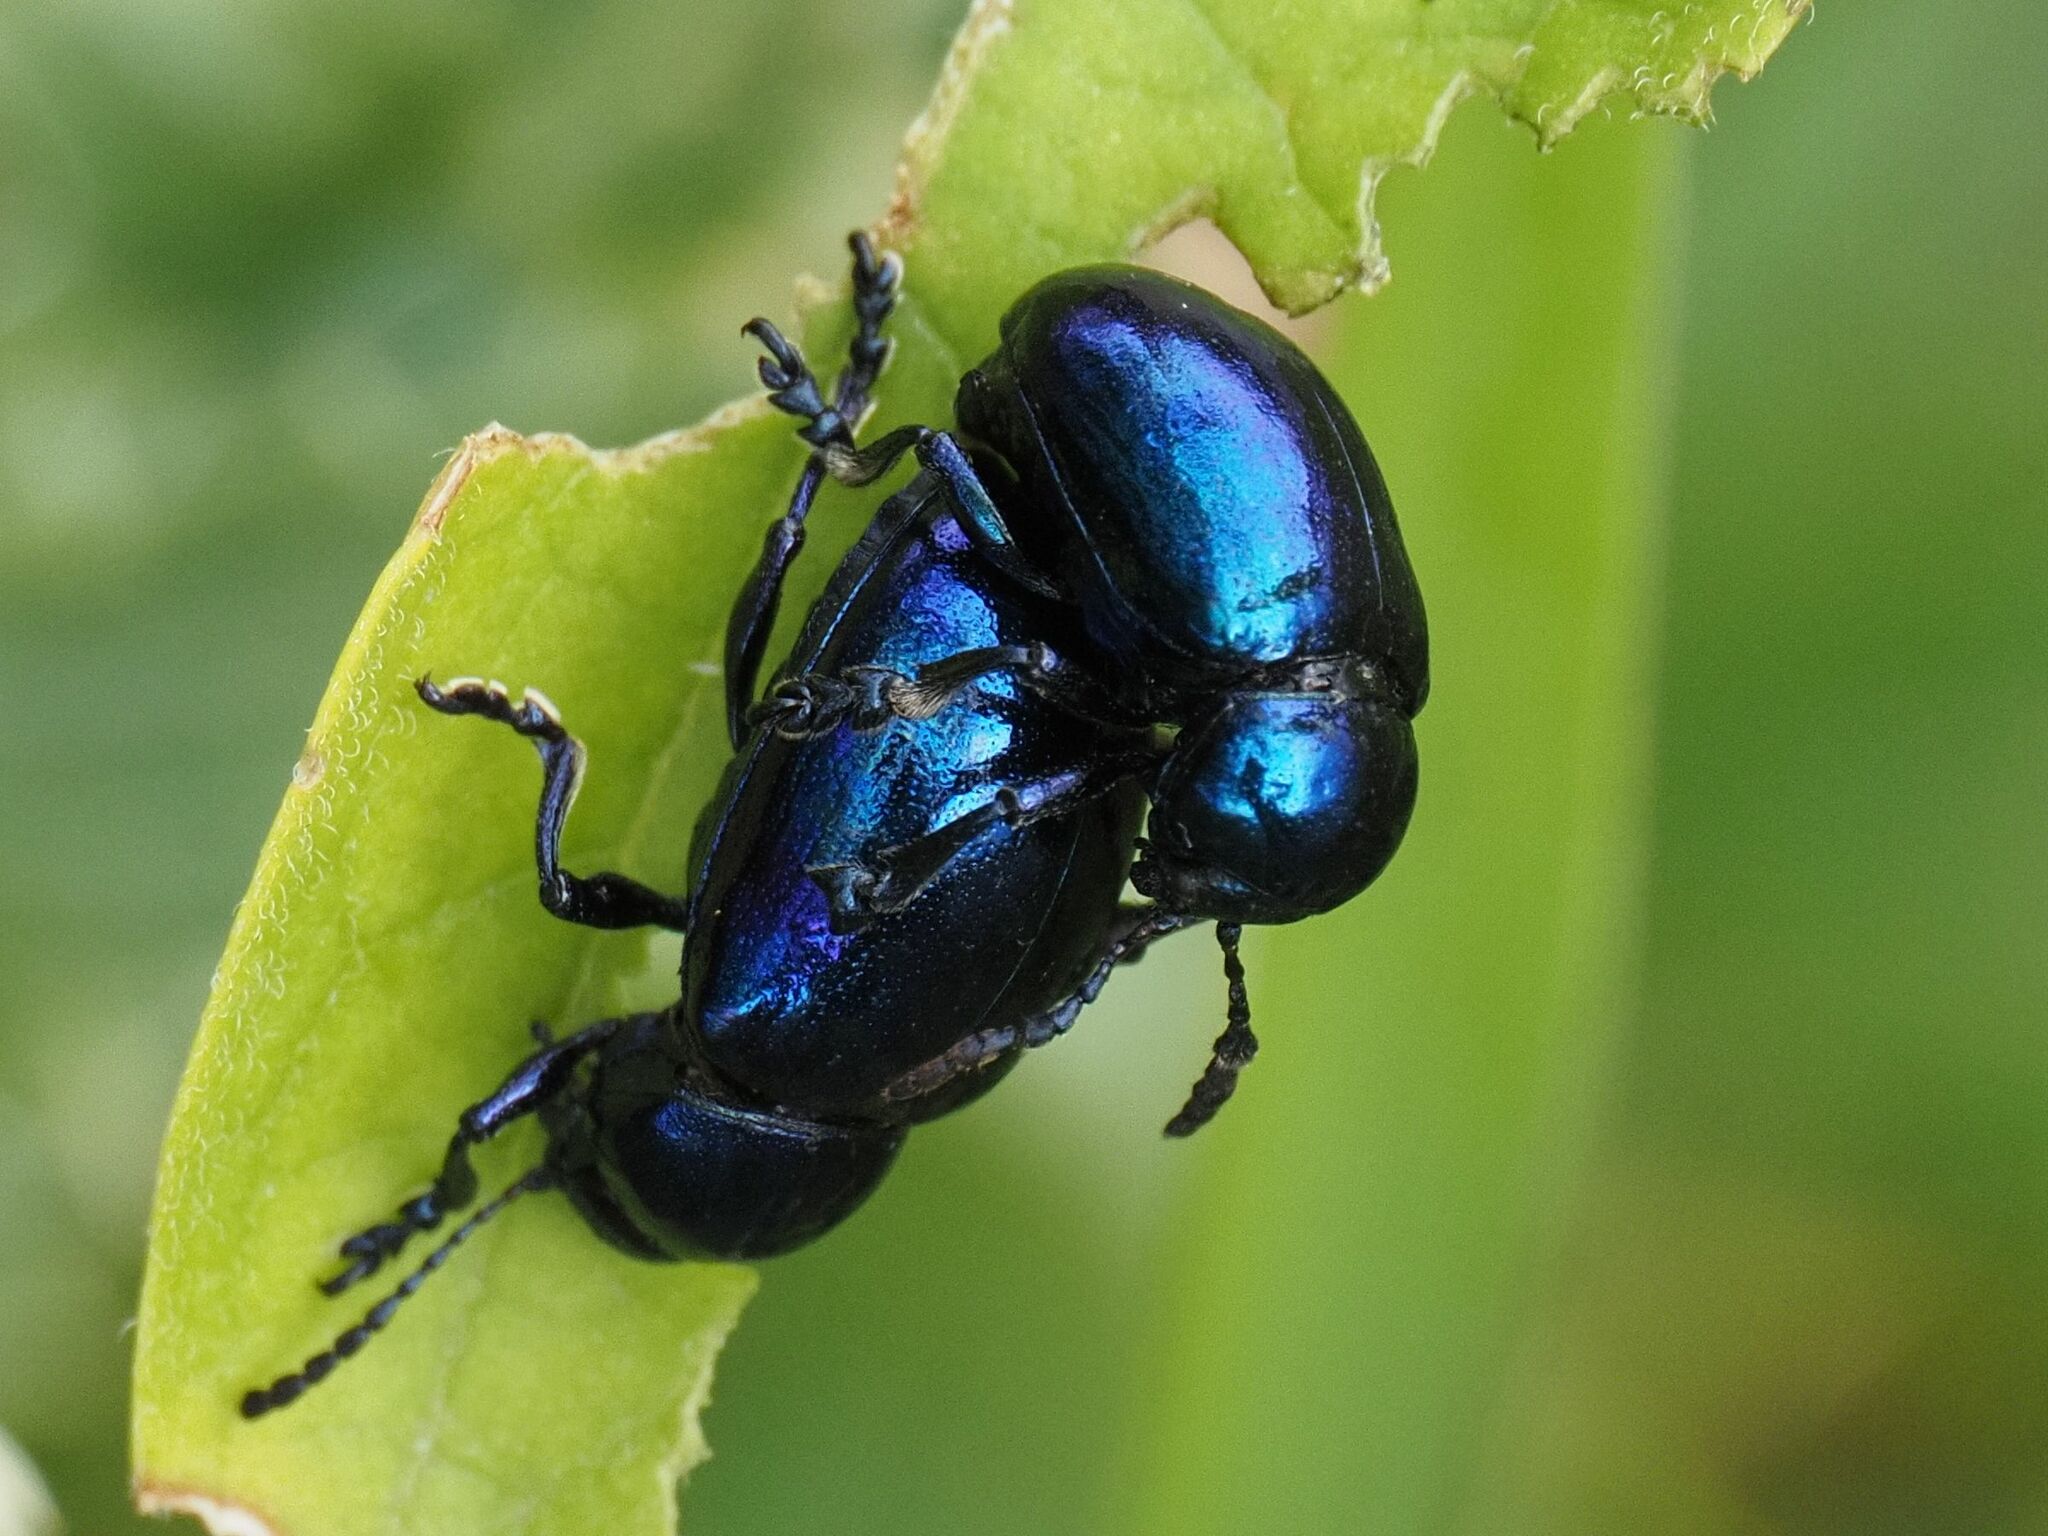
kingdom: Animalia
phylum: Arthropoda
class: Insecta
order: Coleoptera
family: Chrysomelidae
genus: Chrysochus
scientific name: Chrysochus asclepiadeus
